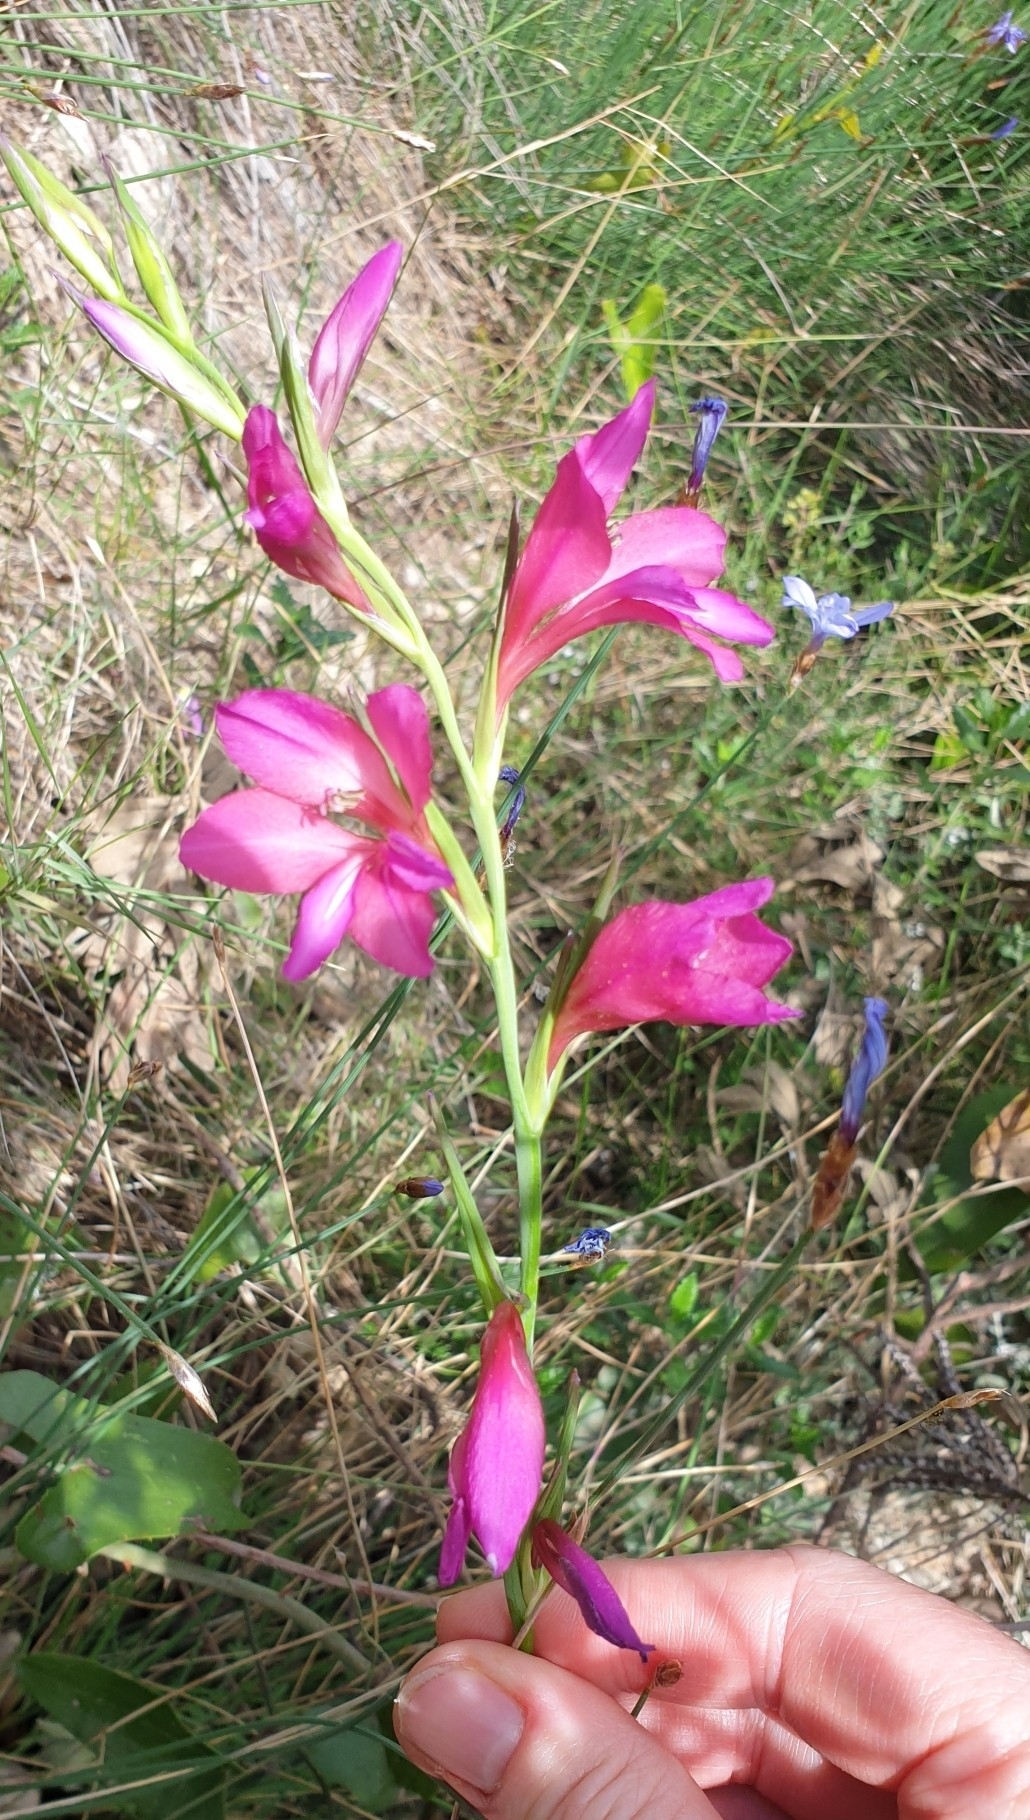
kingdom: Plantae
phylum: Tracheophyta
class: Liliopsida
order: Asparagales
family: Iridaceae
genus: Gladiolus
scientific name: Gladiolus italicus
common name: Field gladiolus
